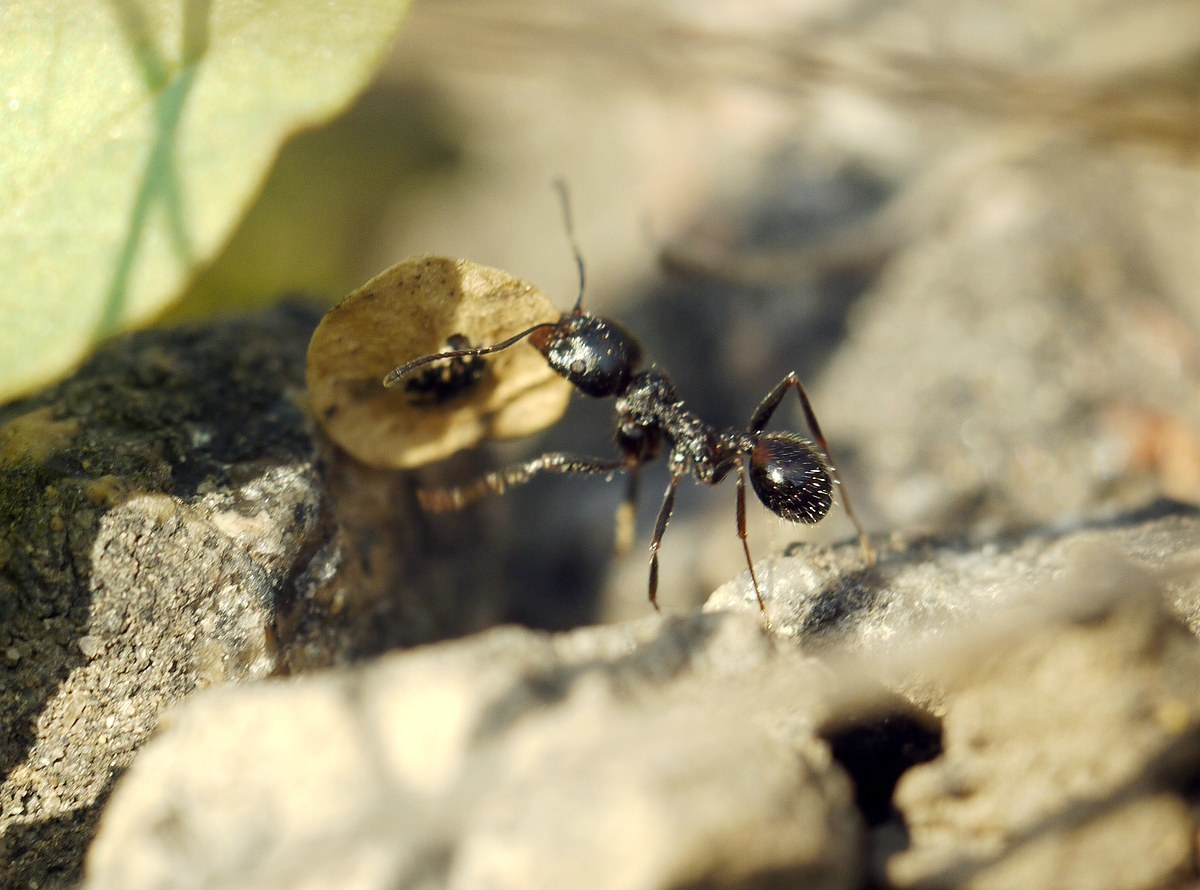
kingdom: Animalia
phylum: Arthropoda
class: Insecta
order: Hymenoptera
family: Formicidae
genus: Messor
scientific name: Messor structor
